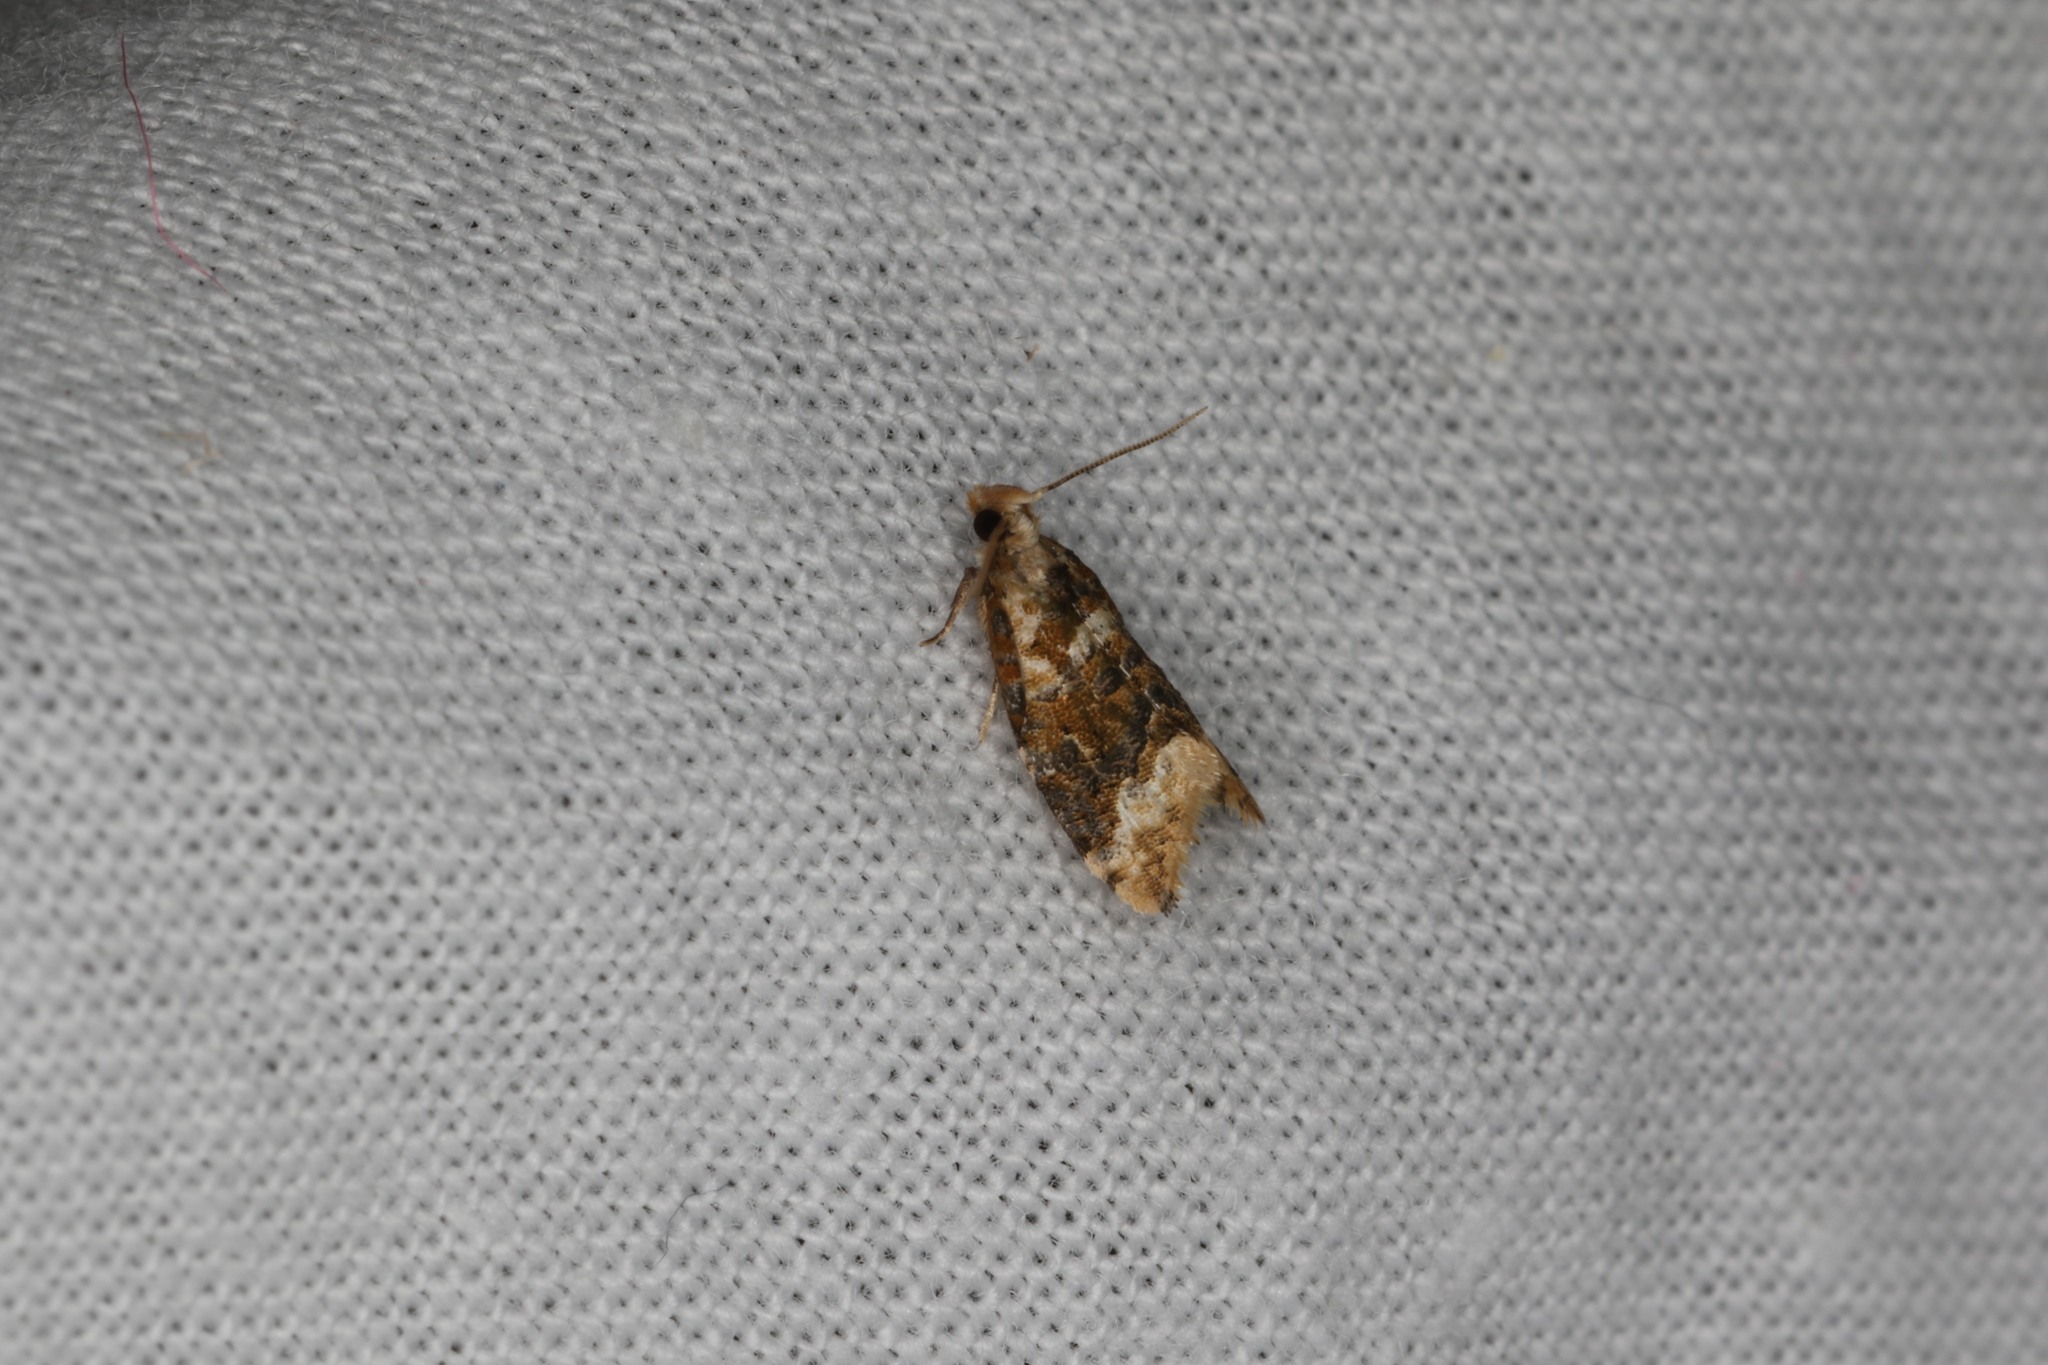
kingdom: Animalia
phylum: Arthropoda
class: Insecta
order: Lepidoptera
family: Tortricidae
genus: Aeolostoma
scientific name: Aeolostoma scutiferana
